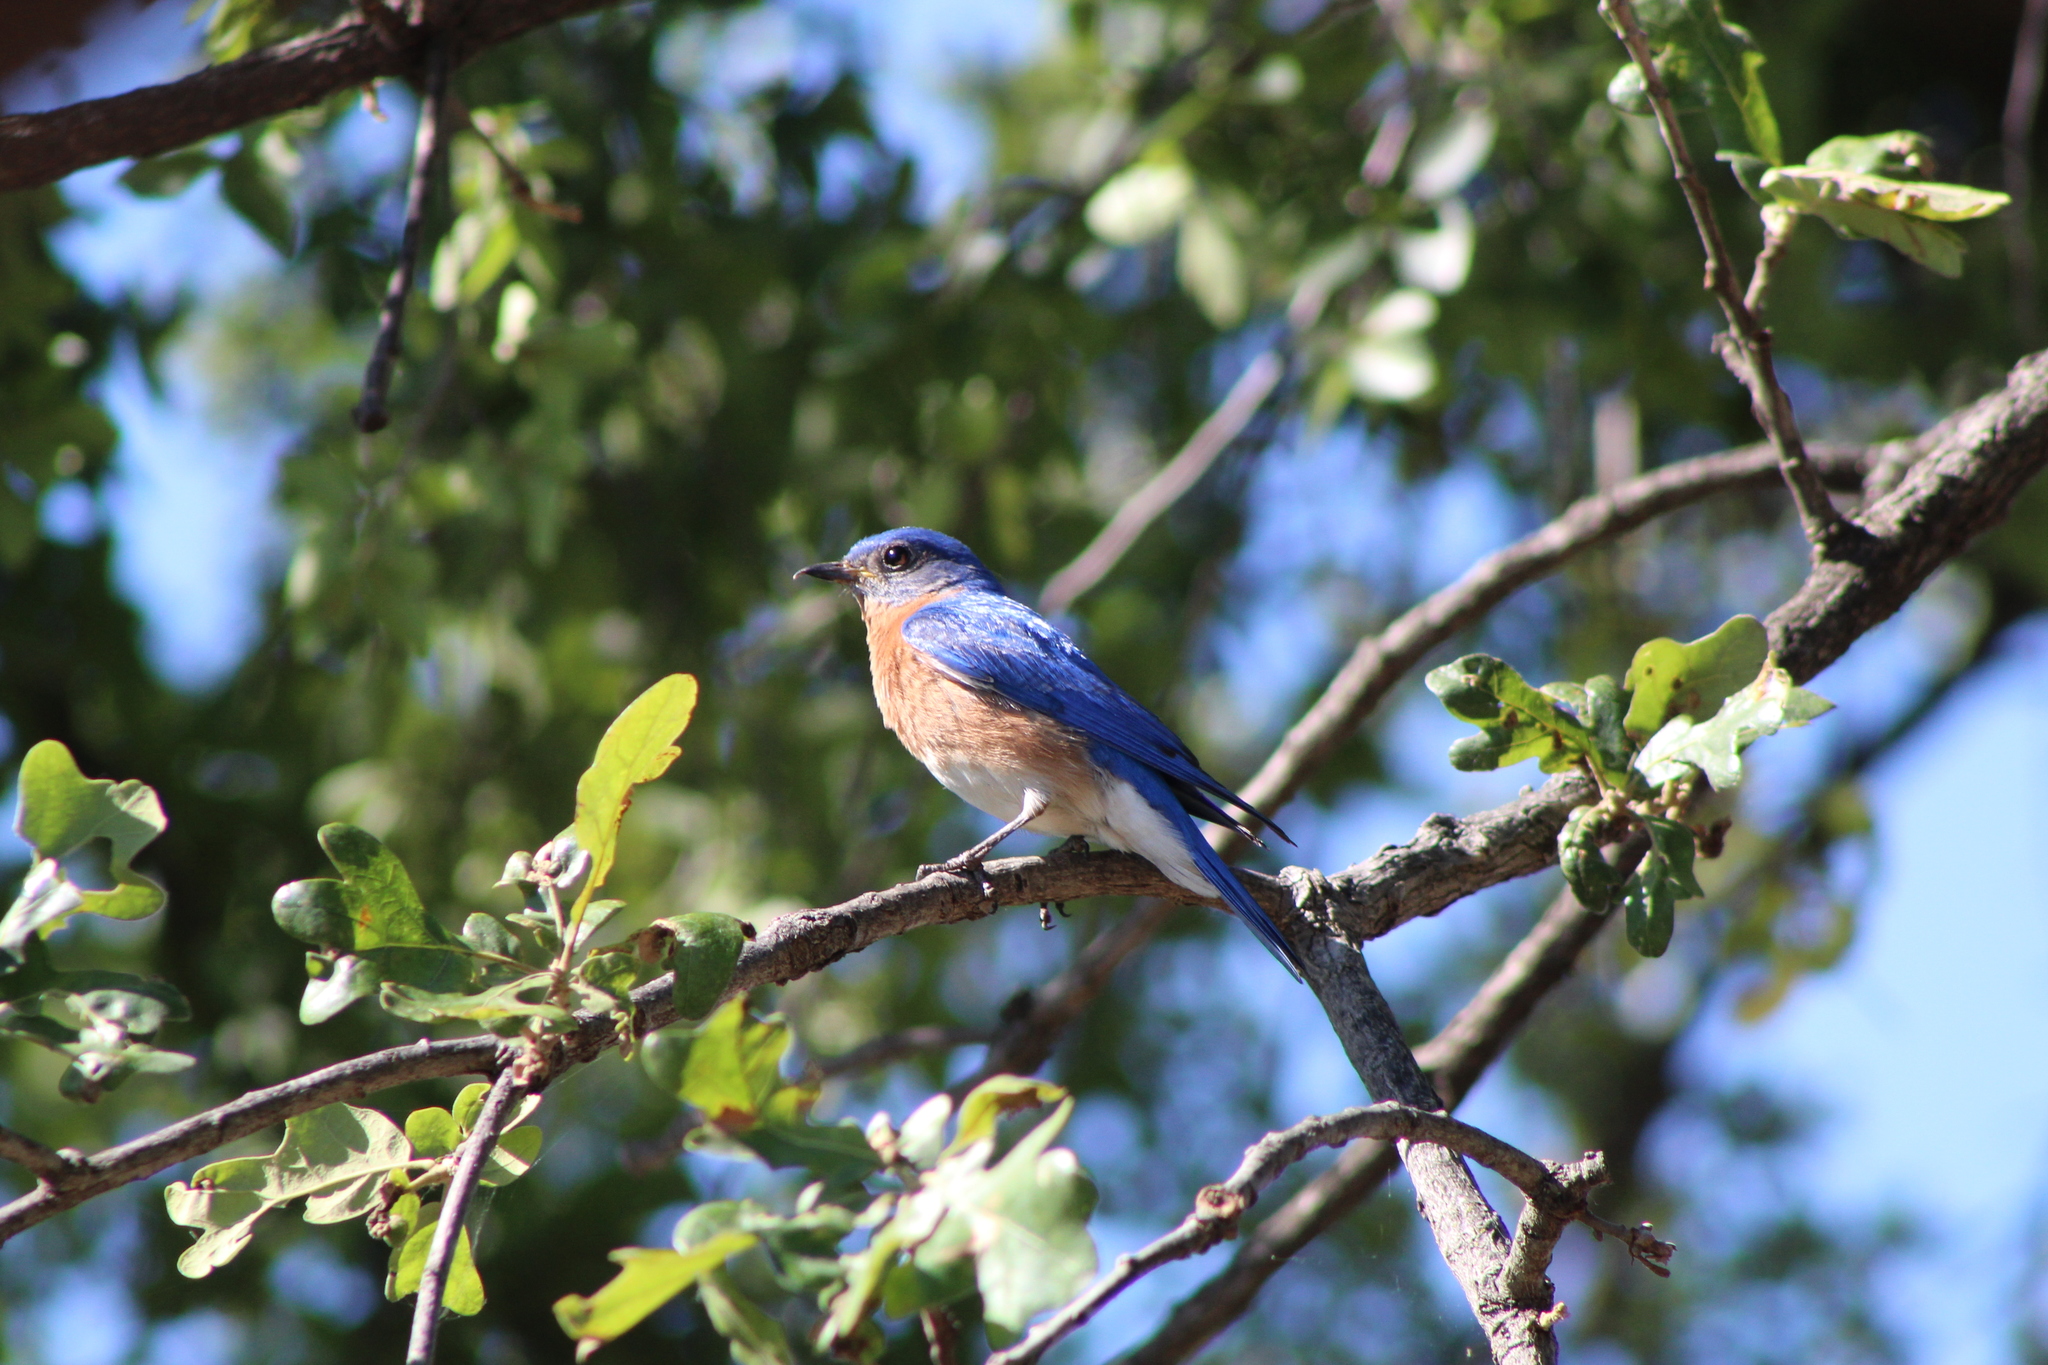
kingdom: Animalia
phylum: Chordata
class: Aves
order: Passeriformes
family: Turdidae
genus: Sialia
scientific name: Sialia sialis
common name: Eastern bluebird
